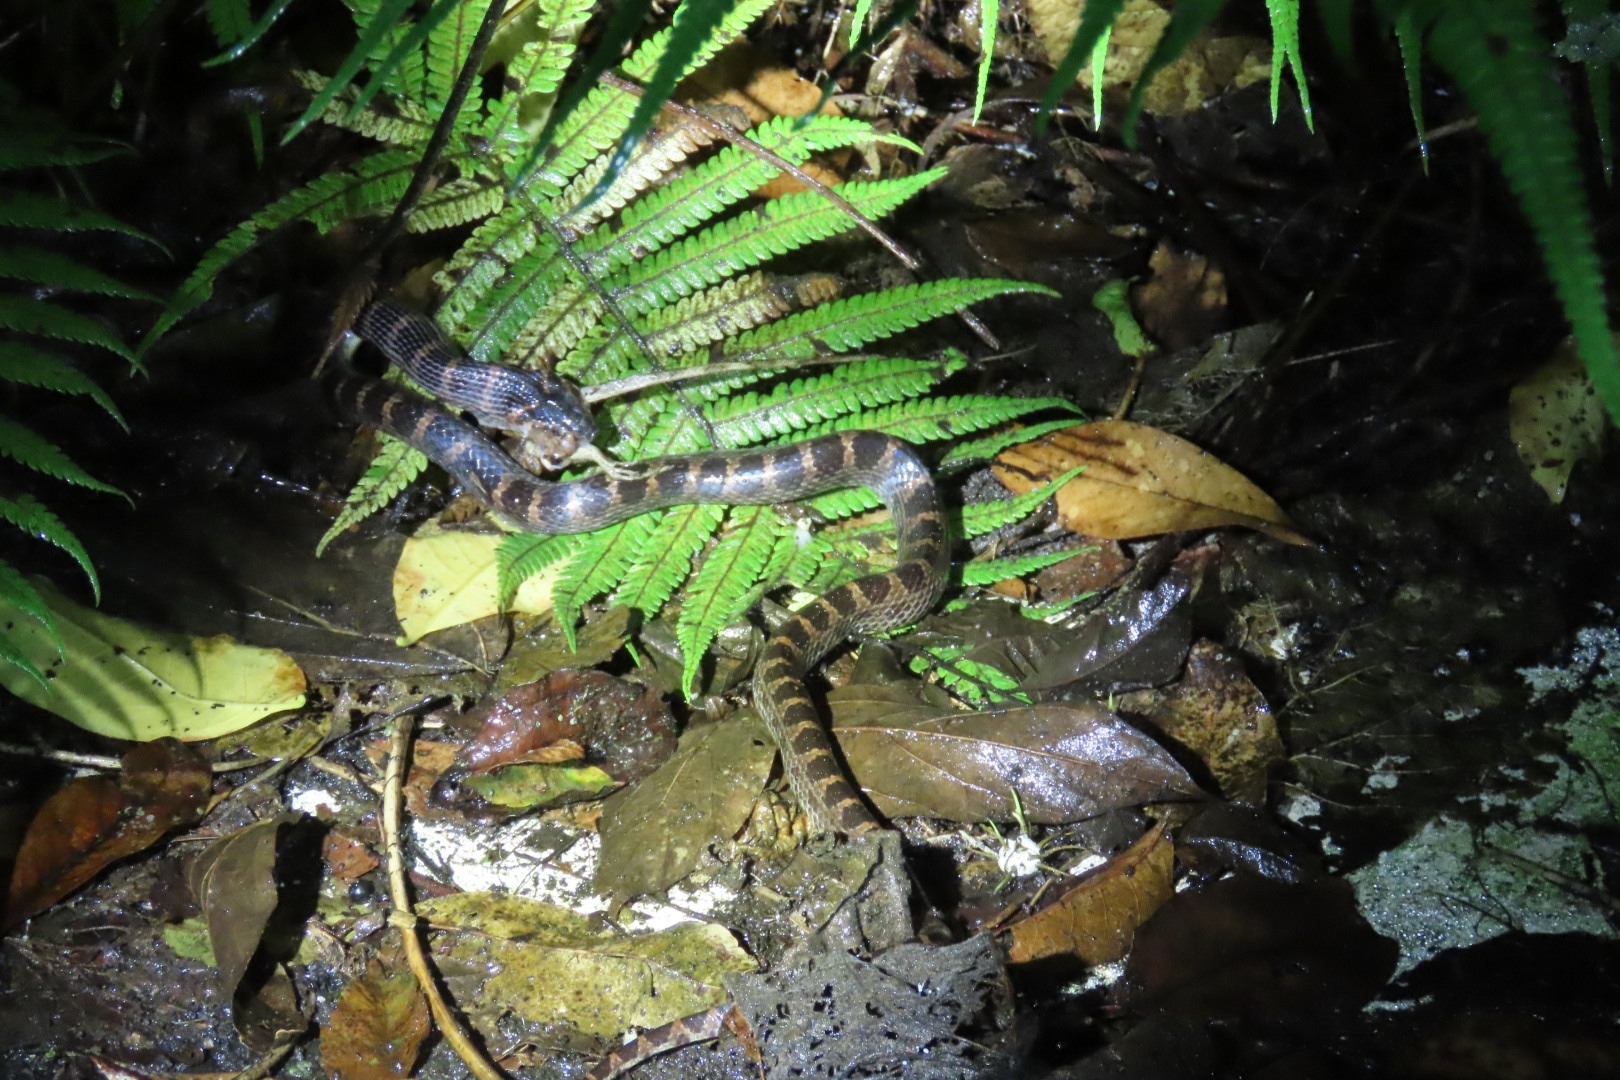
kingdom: Animalia
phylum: Chordata
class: Squamata
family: Colubridae
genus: Lycodon
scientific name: Lycodon rufozonatus
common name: Red-banded snake
